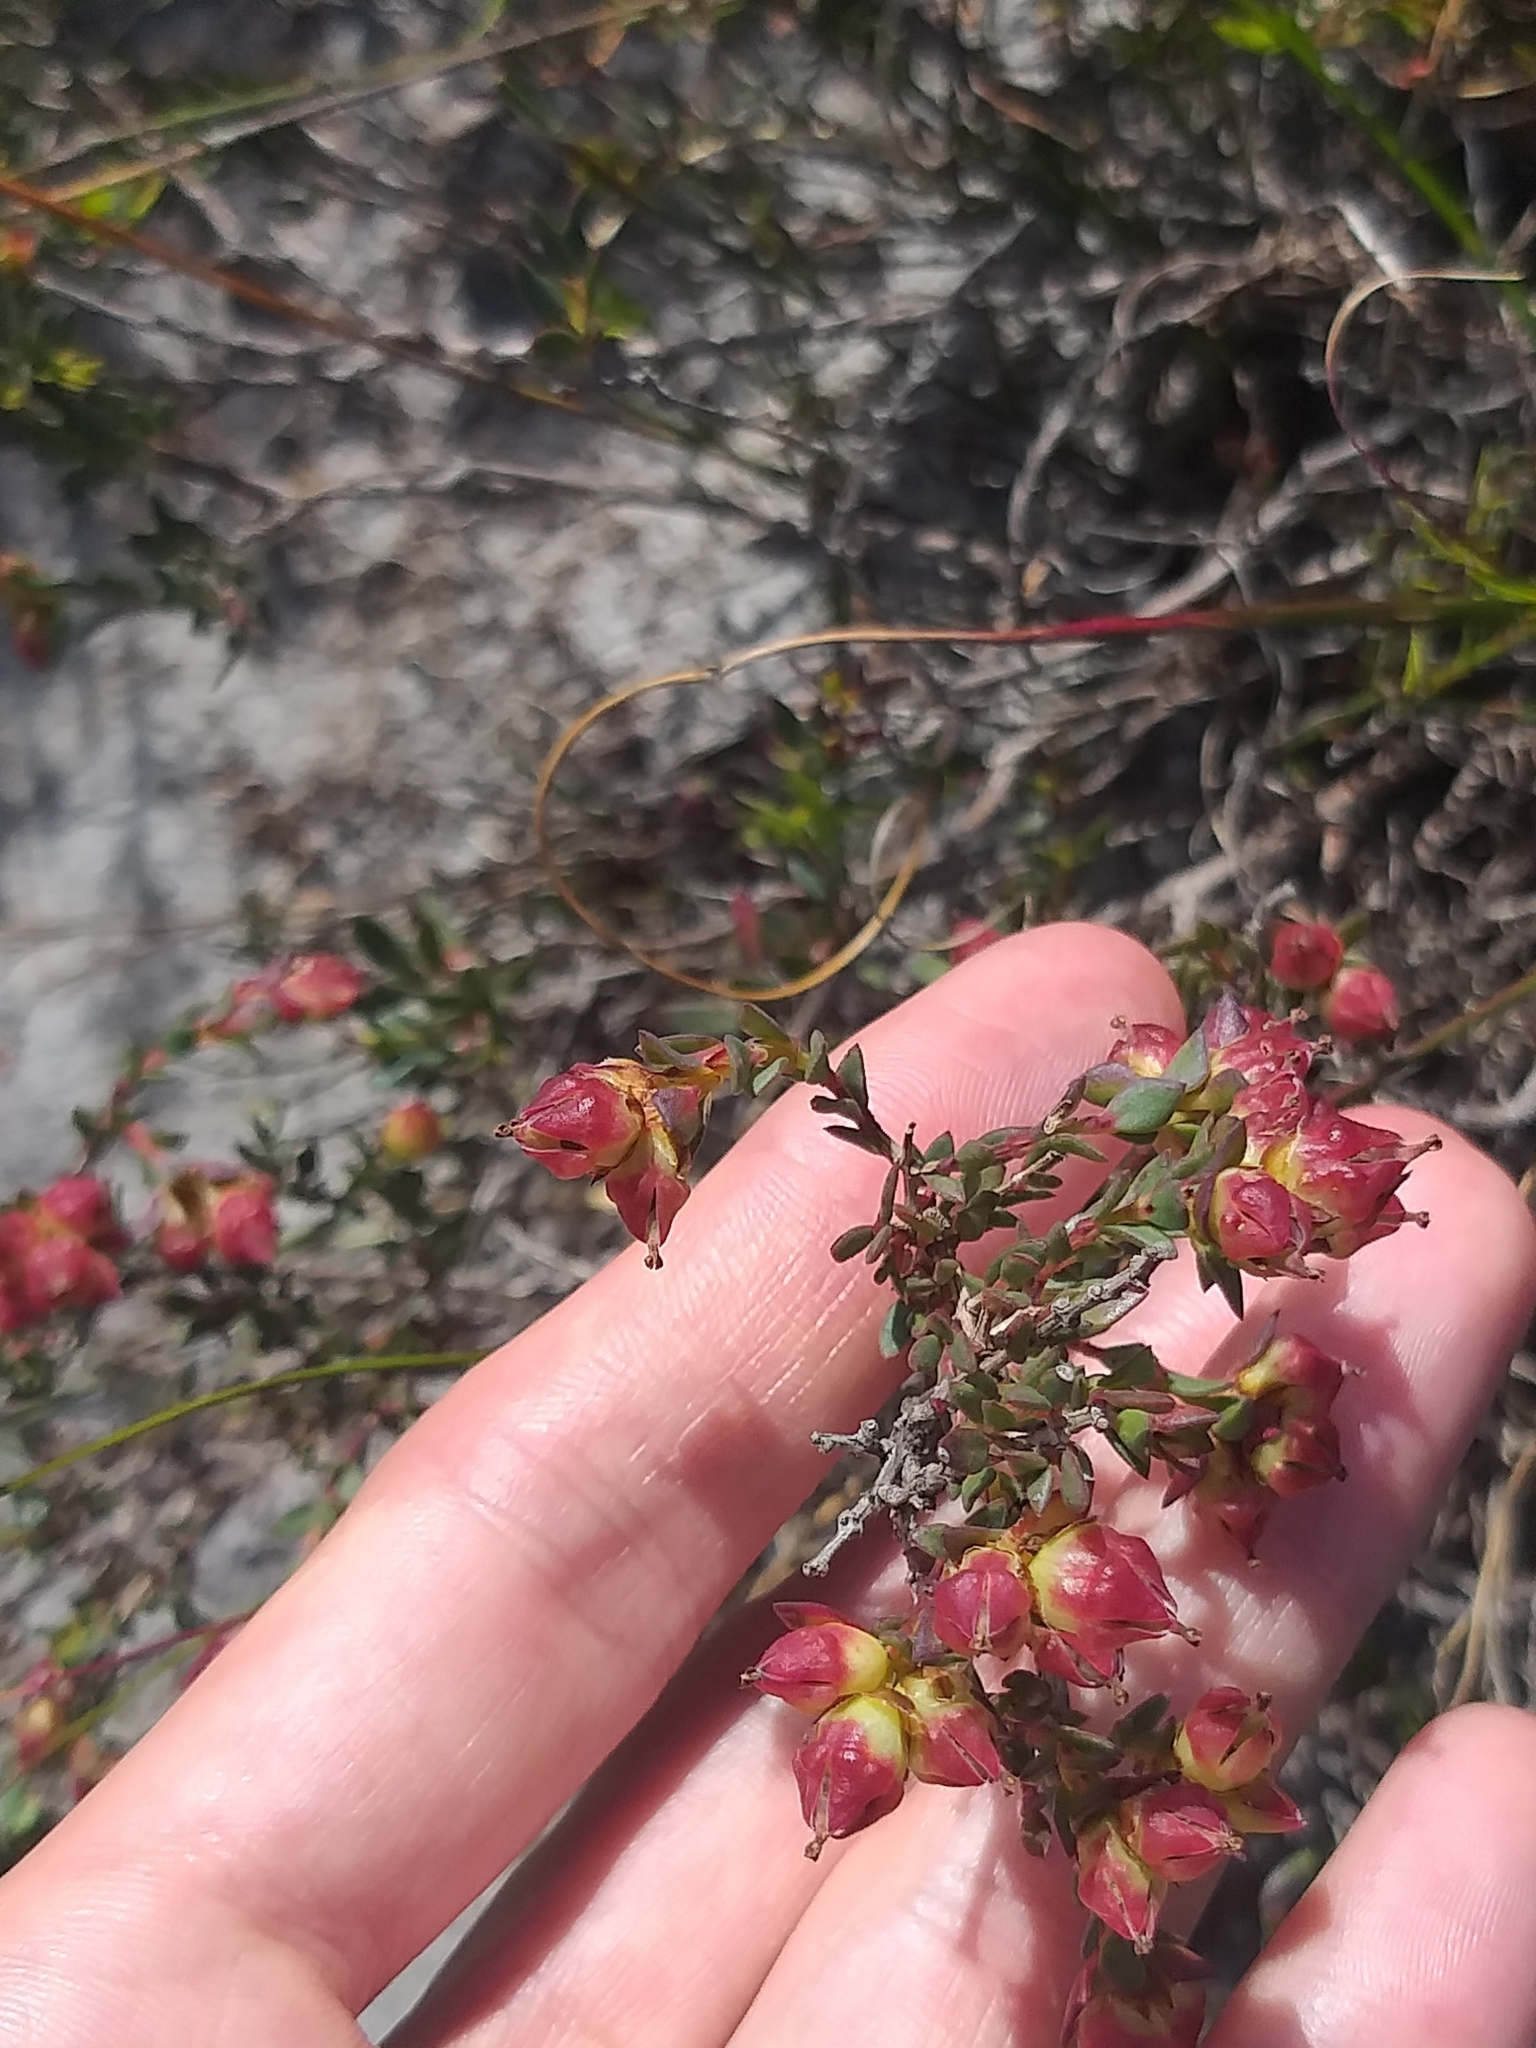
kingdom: Plantae
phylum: Tracheophyta
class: Magnoliopsida
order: Myrtales
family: Penaeaceae
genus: Stylapterus
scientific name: Stylapterus fruticulosus
